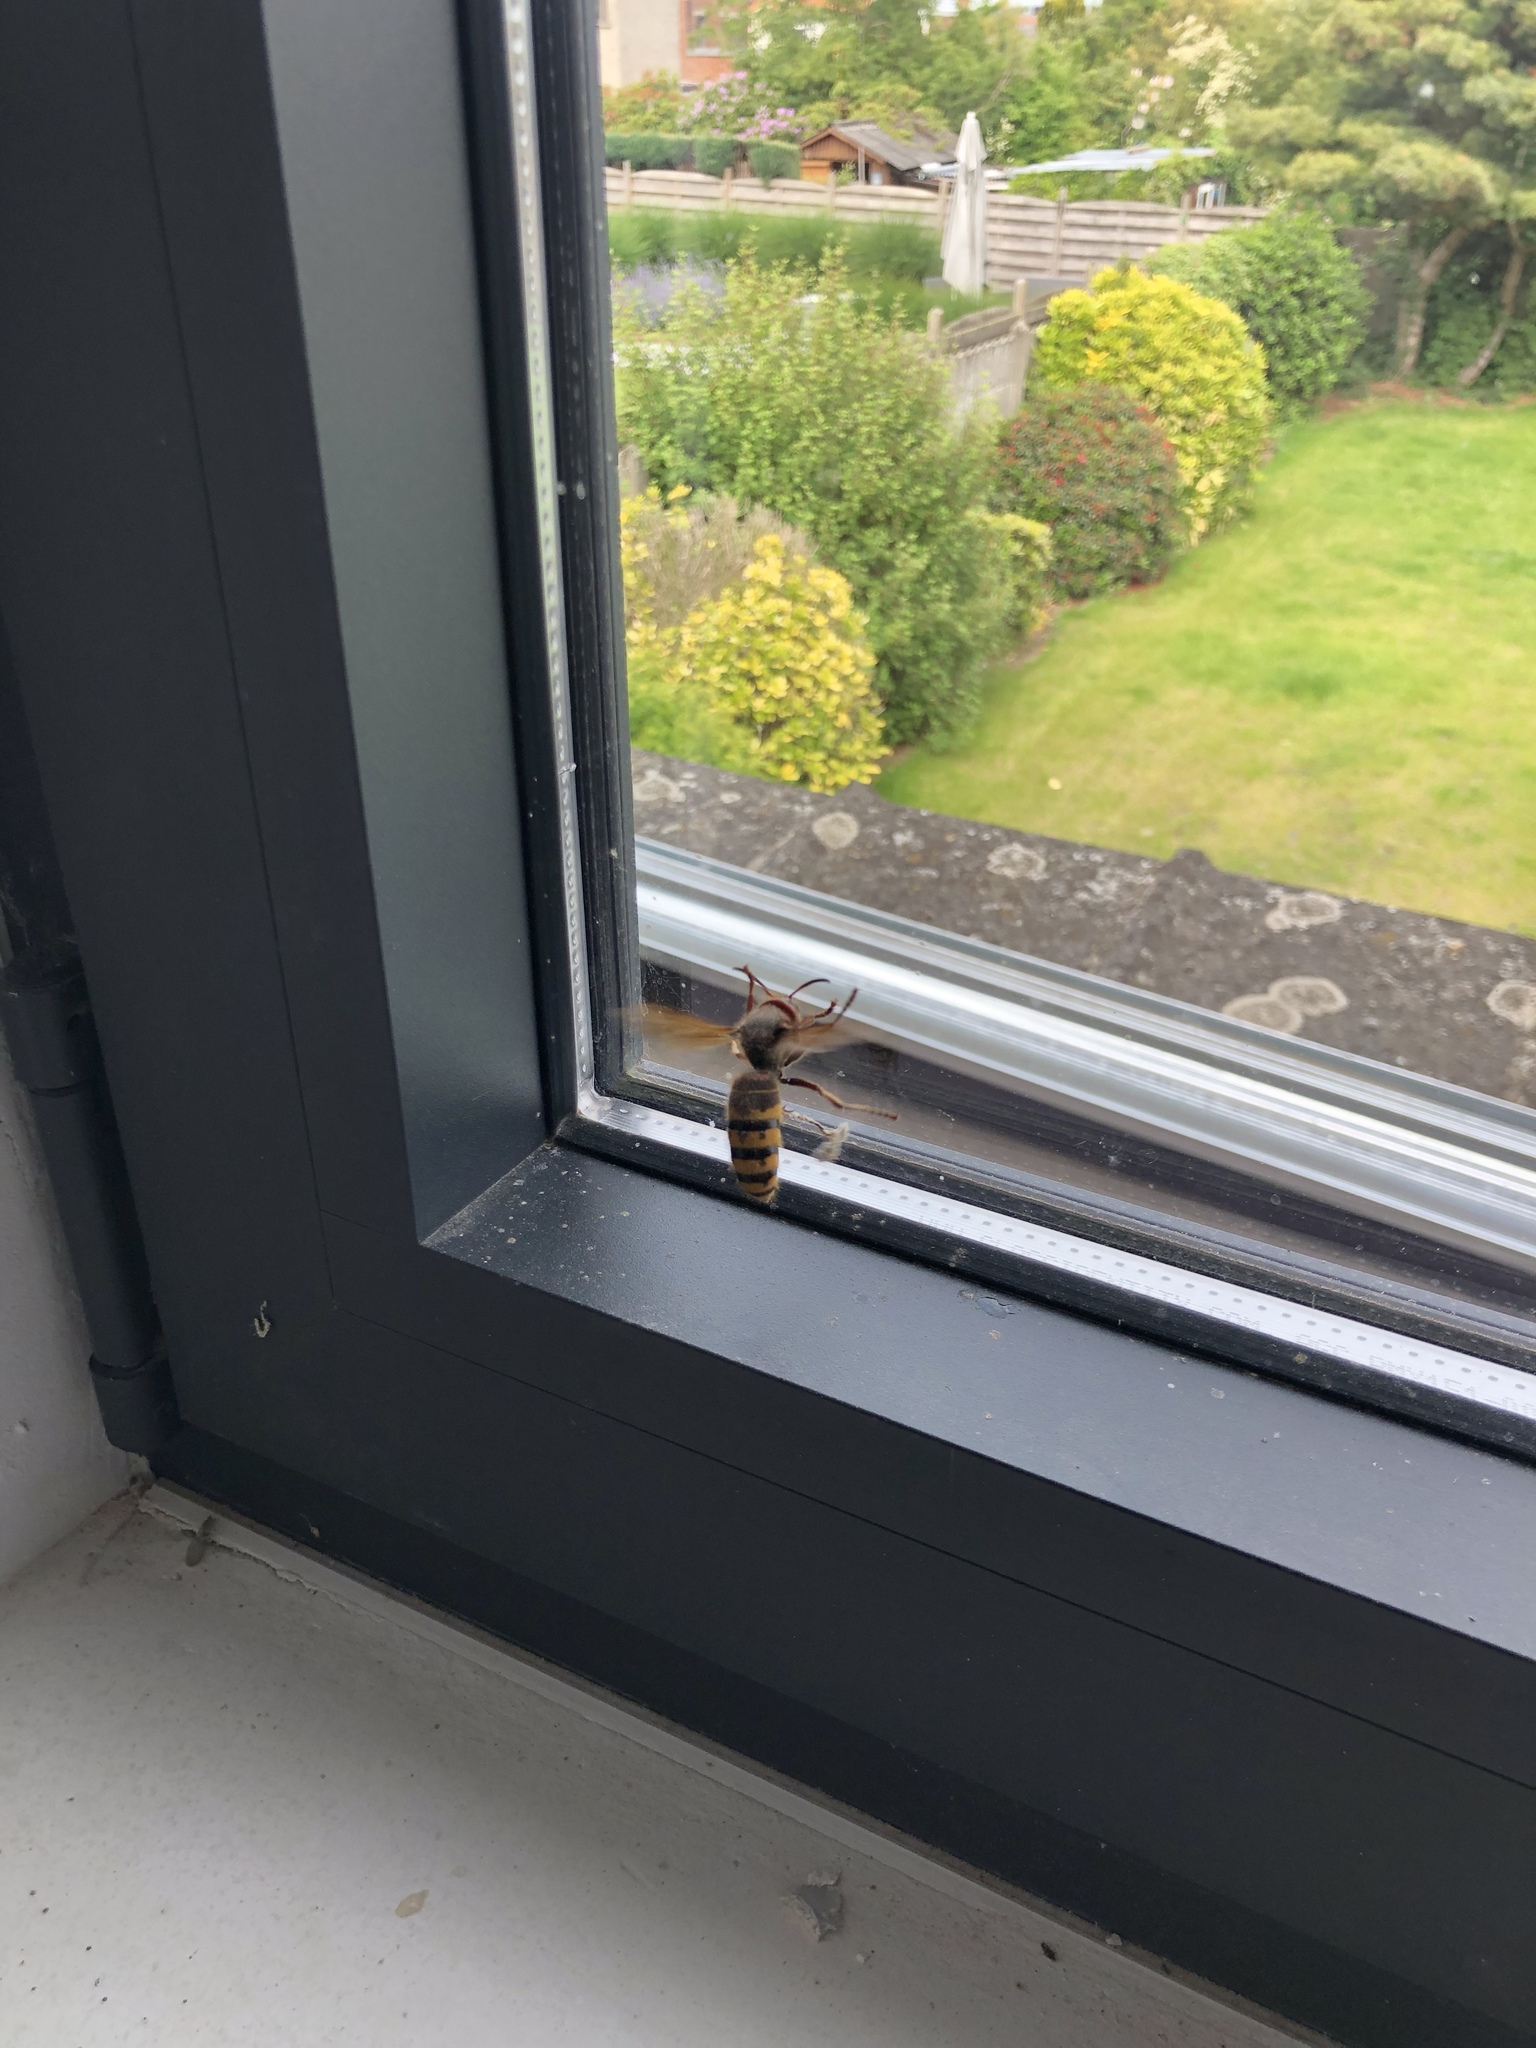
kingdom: Animalia
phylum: Arthropoda
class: Insecta
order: Hymenoptera
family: Vespidae
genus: Vespa
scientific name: Vespa crabro
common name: Hornet
